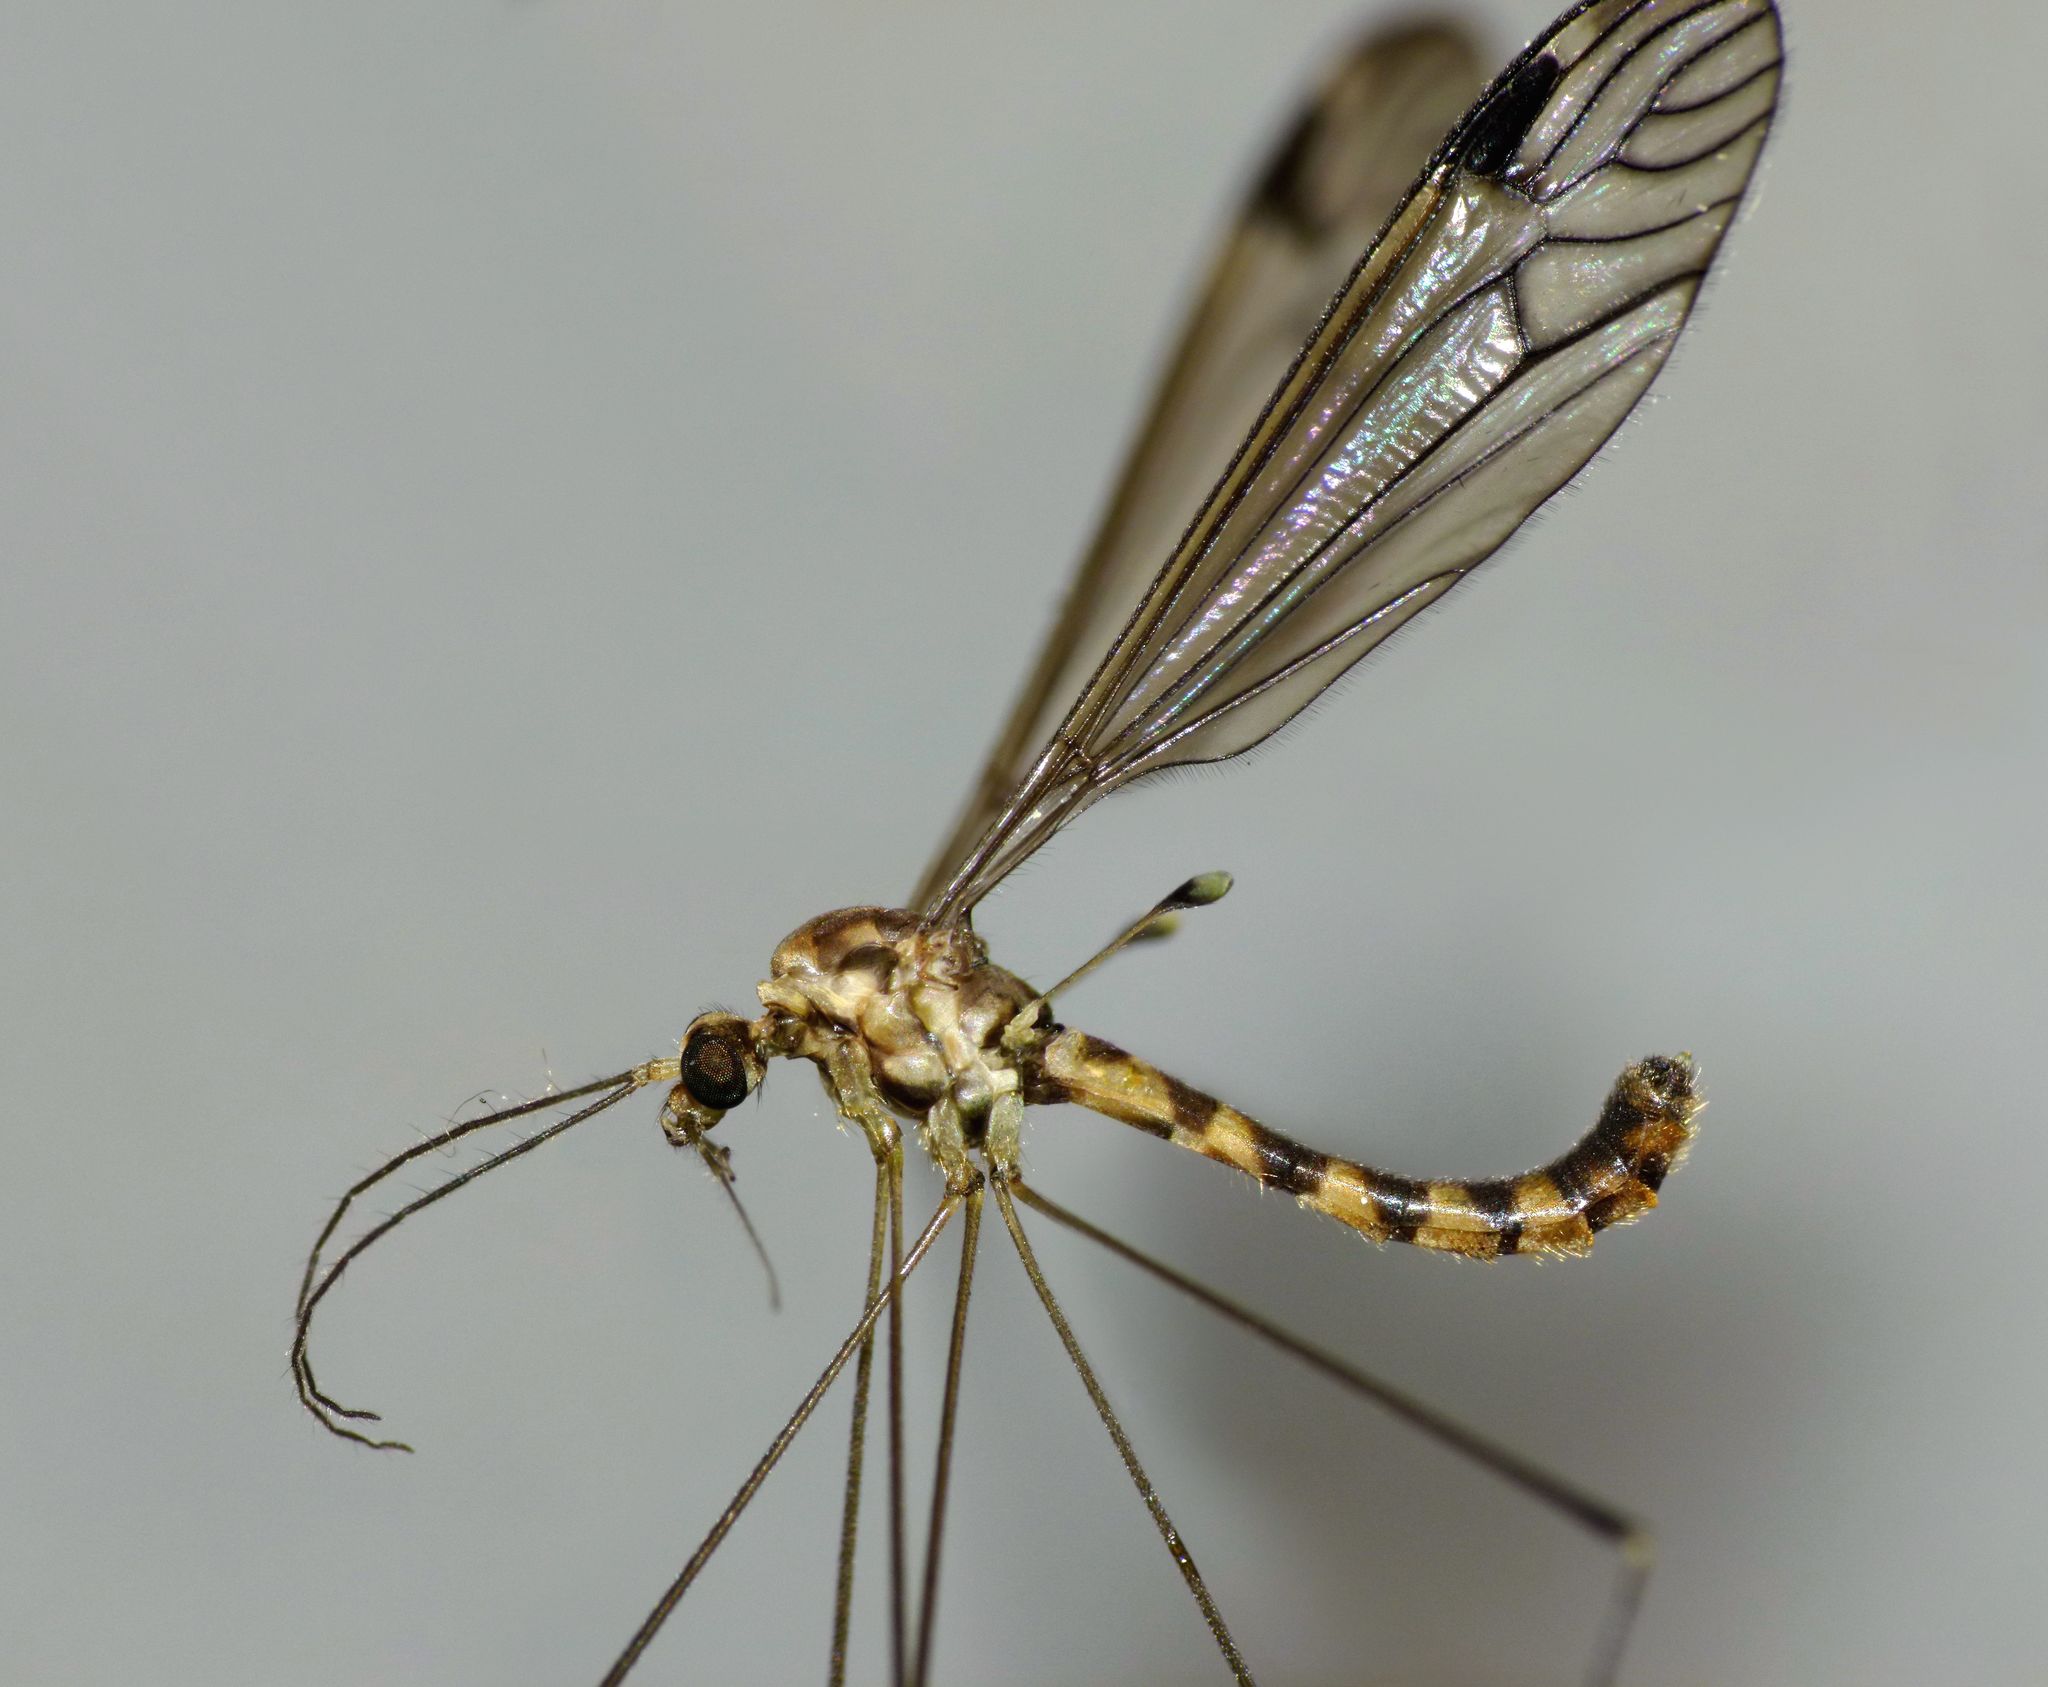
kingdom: Animalia
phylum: Arthropoda
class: Insecta
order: Diptera
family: Tipulidae
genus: Dolichopeza
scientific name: Dolichopeza parvicauda
